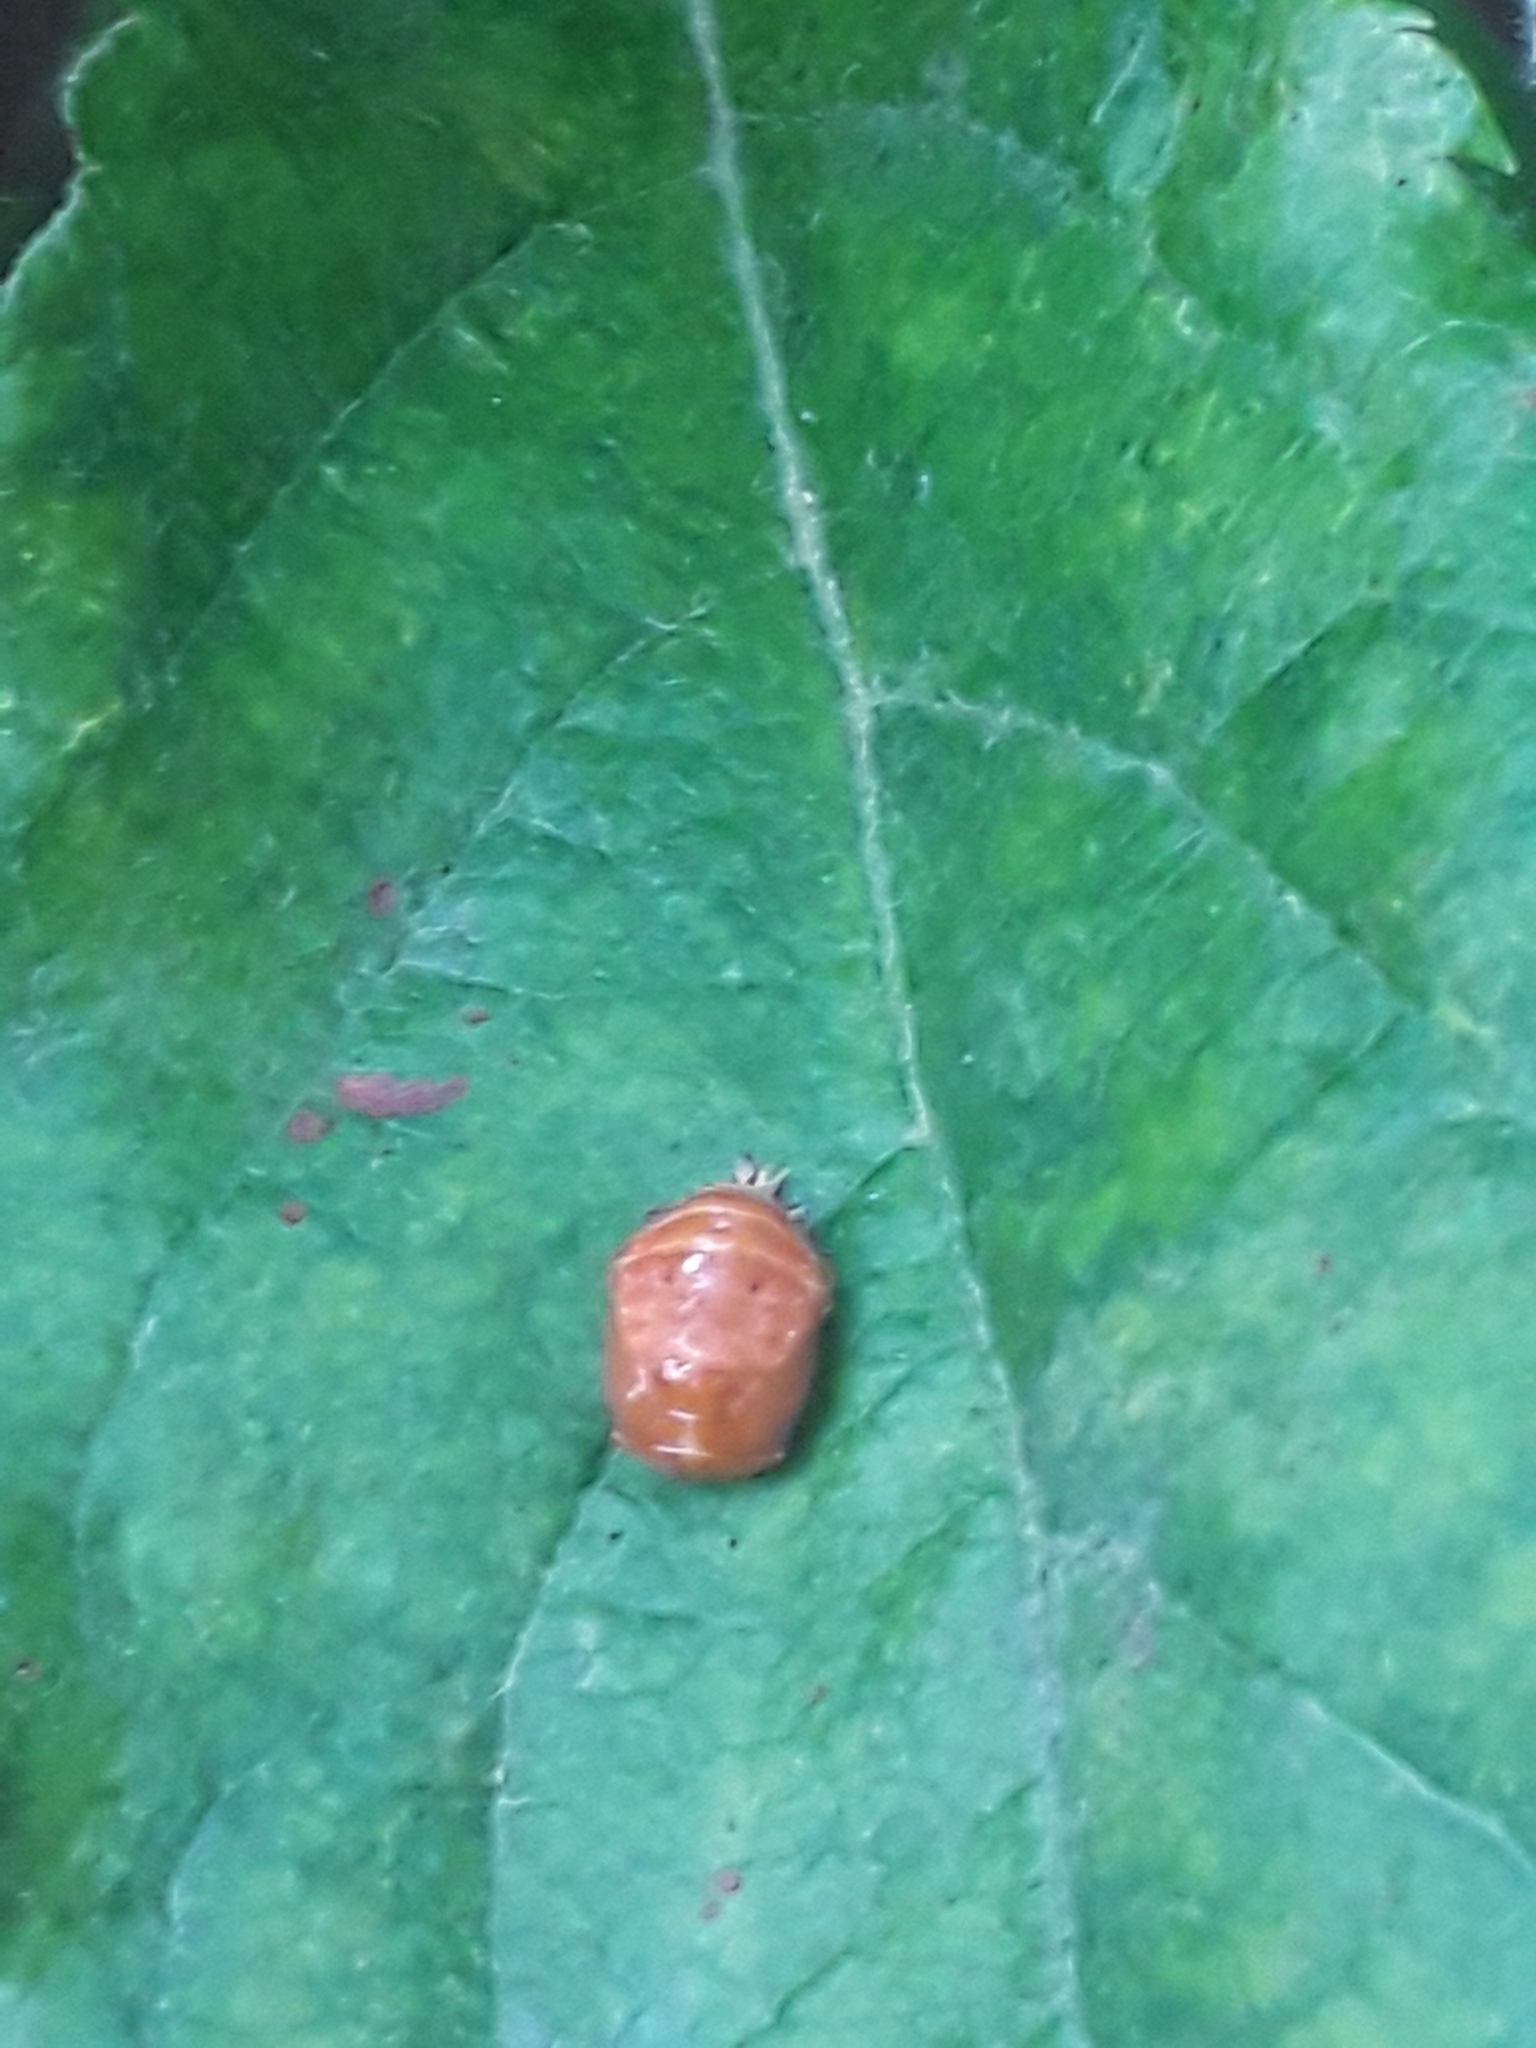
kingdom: Animalia
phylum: Arthropoda
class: Insecta
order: Coleoptera
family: Coccinellidae
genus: Harmonia
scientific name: Harmonia axyridis
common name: Harlequin ladybird
